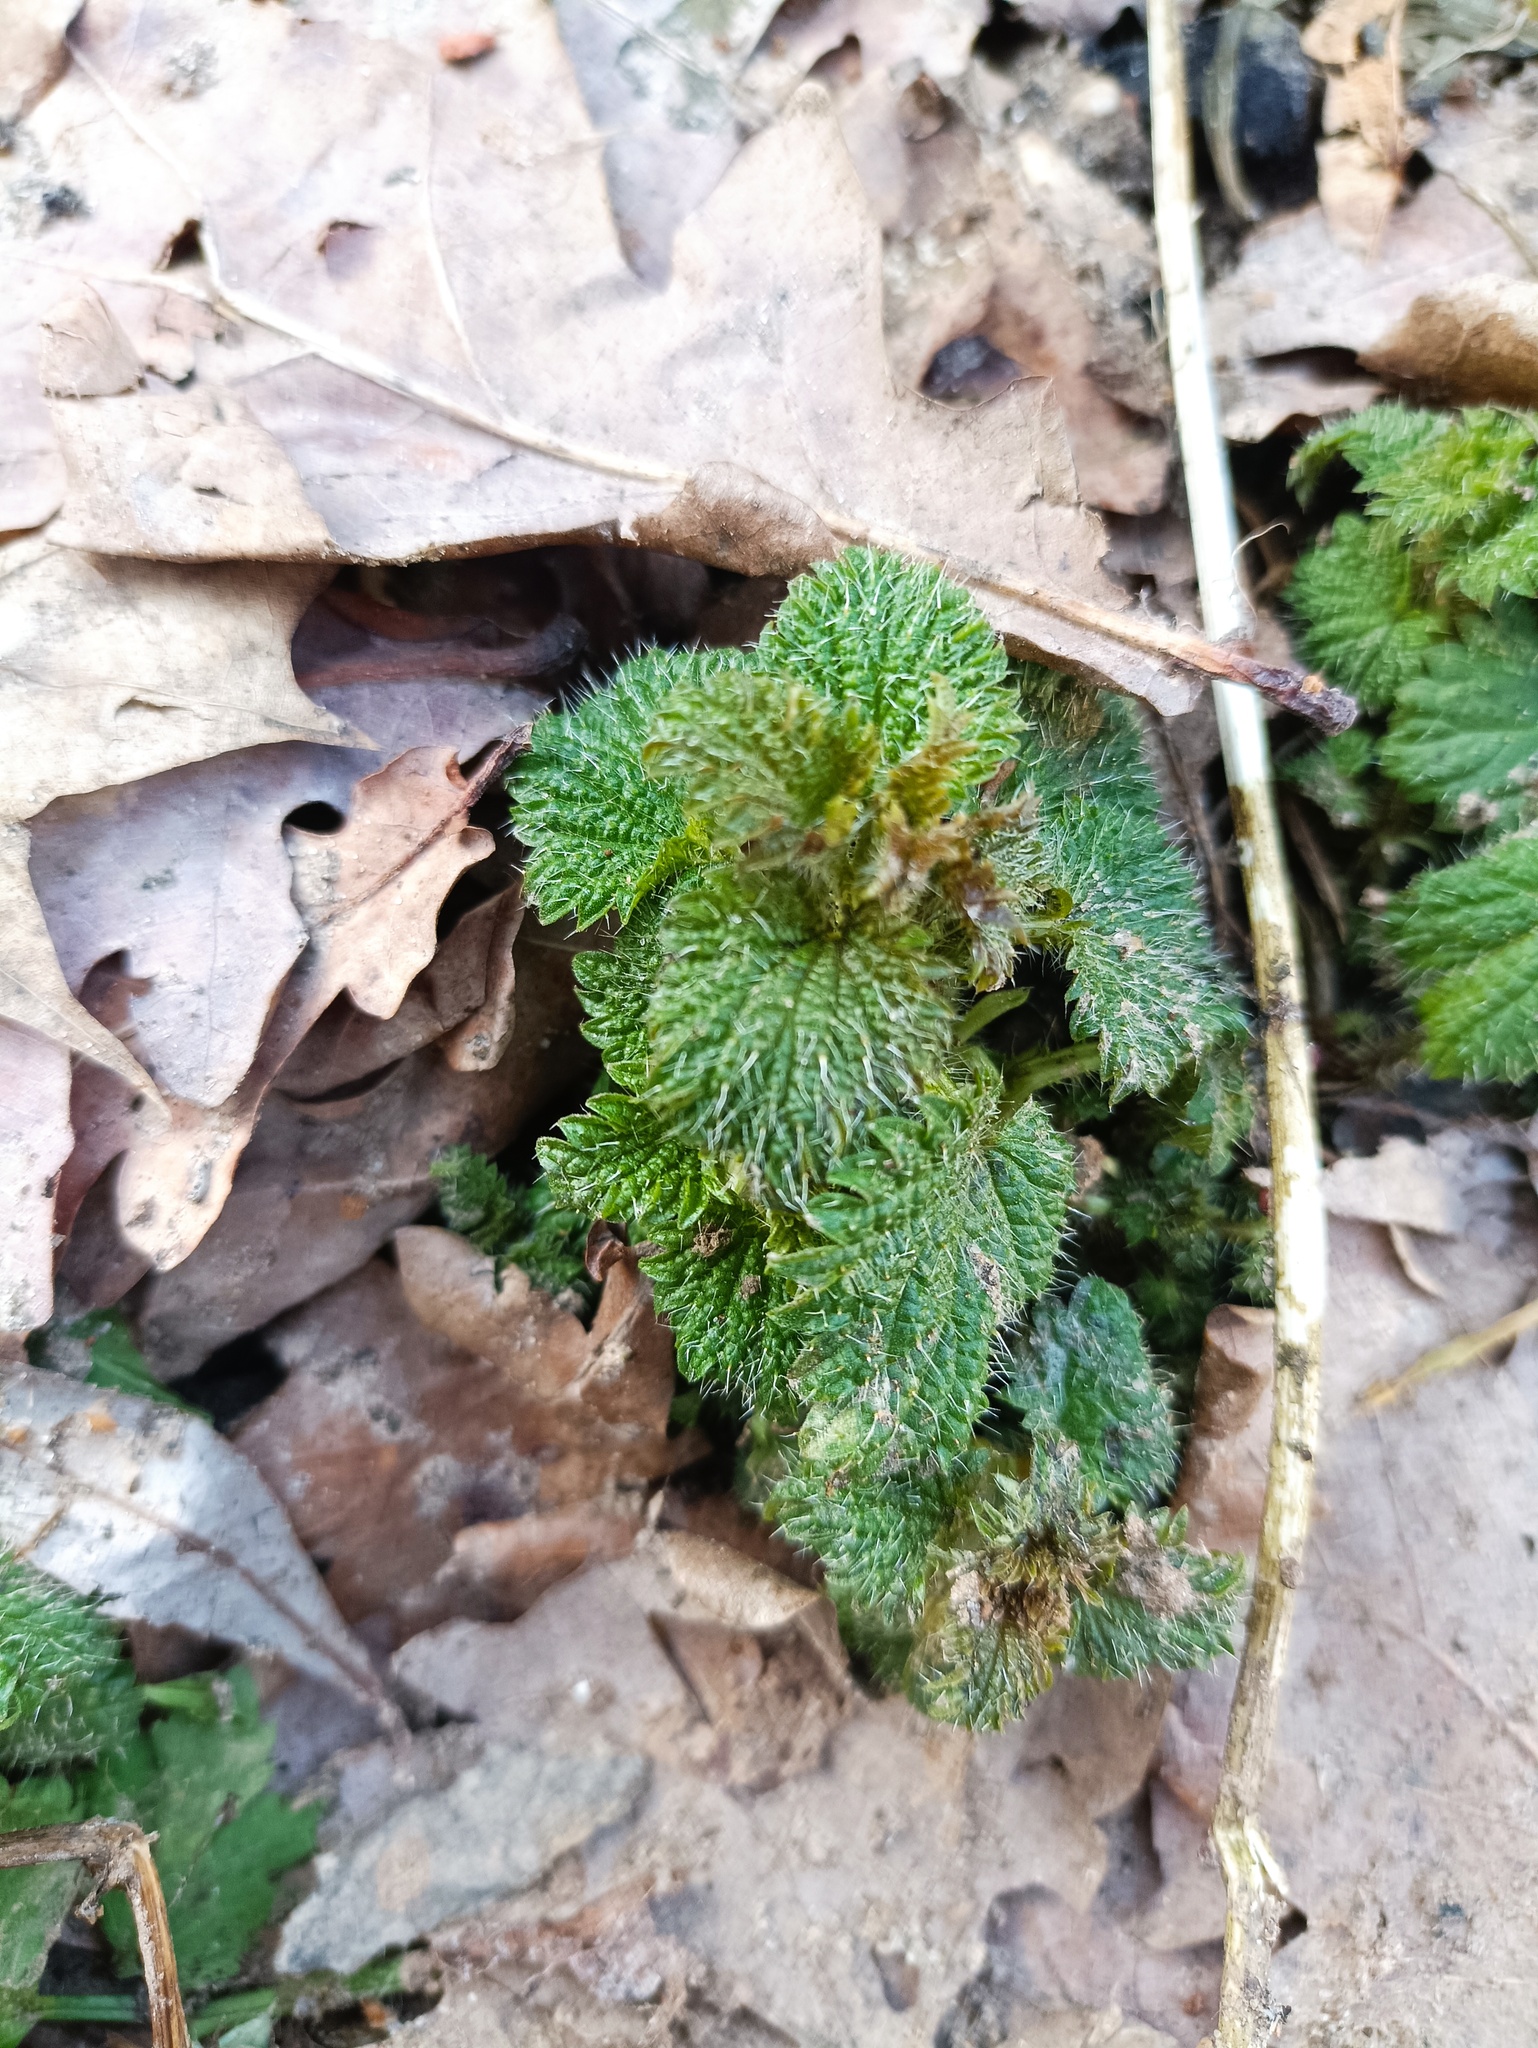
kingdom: Plantae
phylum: Tracheophyta
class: Magnoliopsida
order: Rosales
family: Urticaceae
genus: Urtica
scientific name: Urtica dioica
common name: Common nettle
